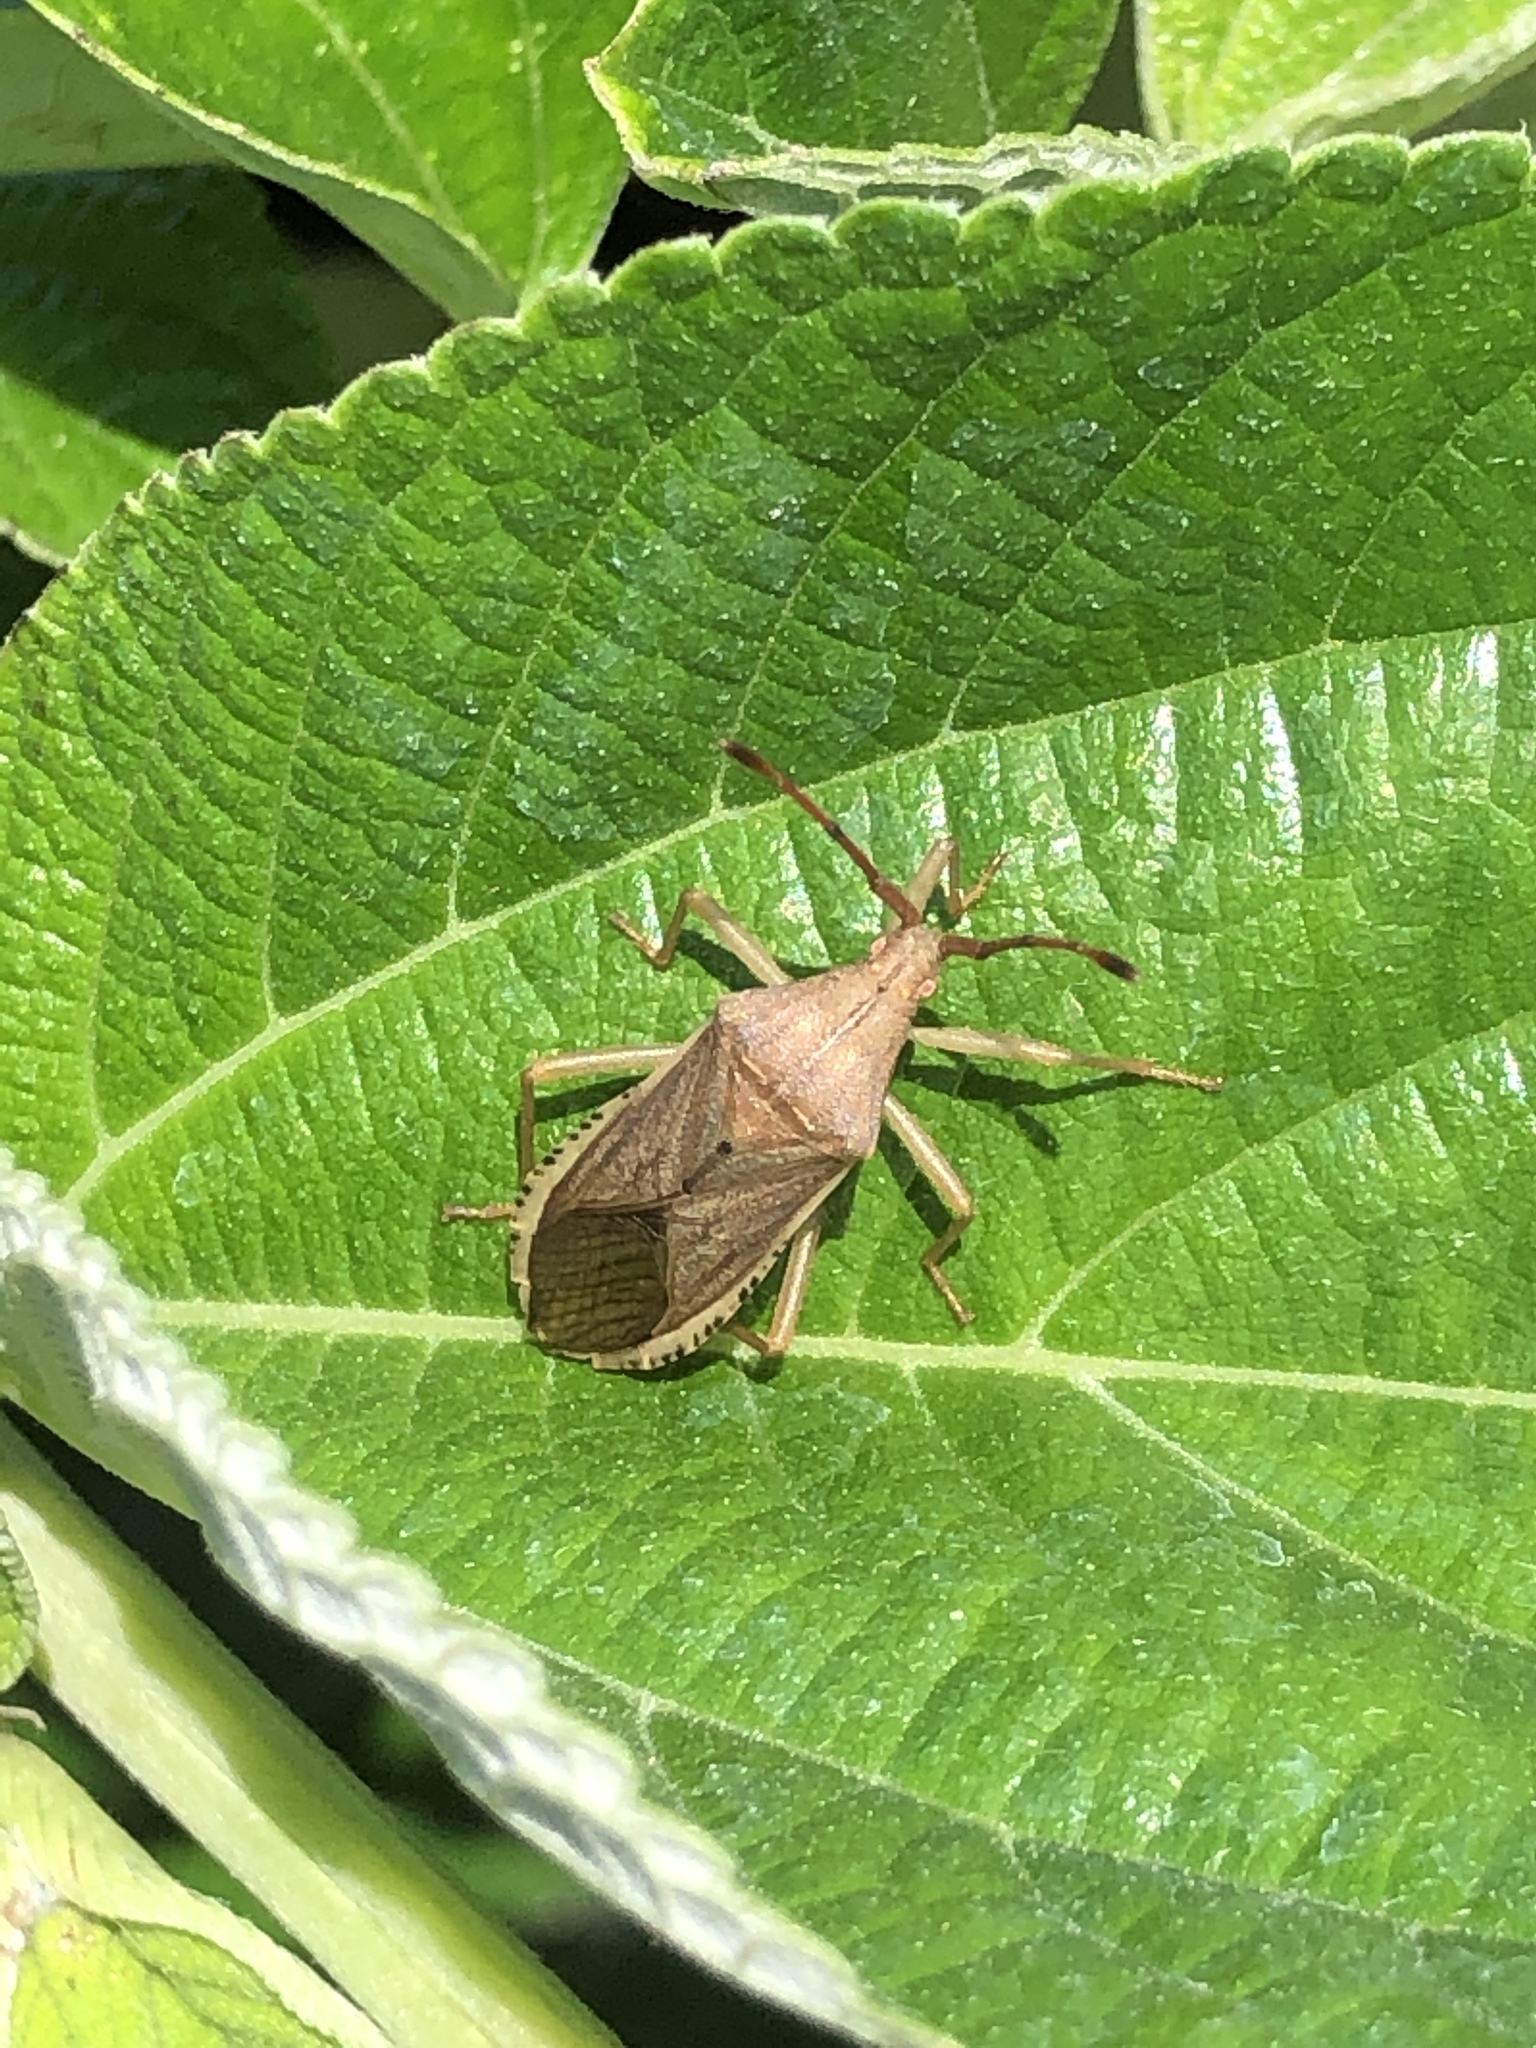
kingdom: Animalia
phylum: Arthropoda
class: Insecta
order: Hemiptera
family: Coreidae
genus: Homoeocerus
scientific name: Homoeocerus marginiventris
